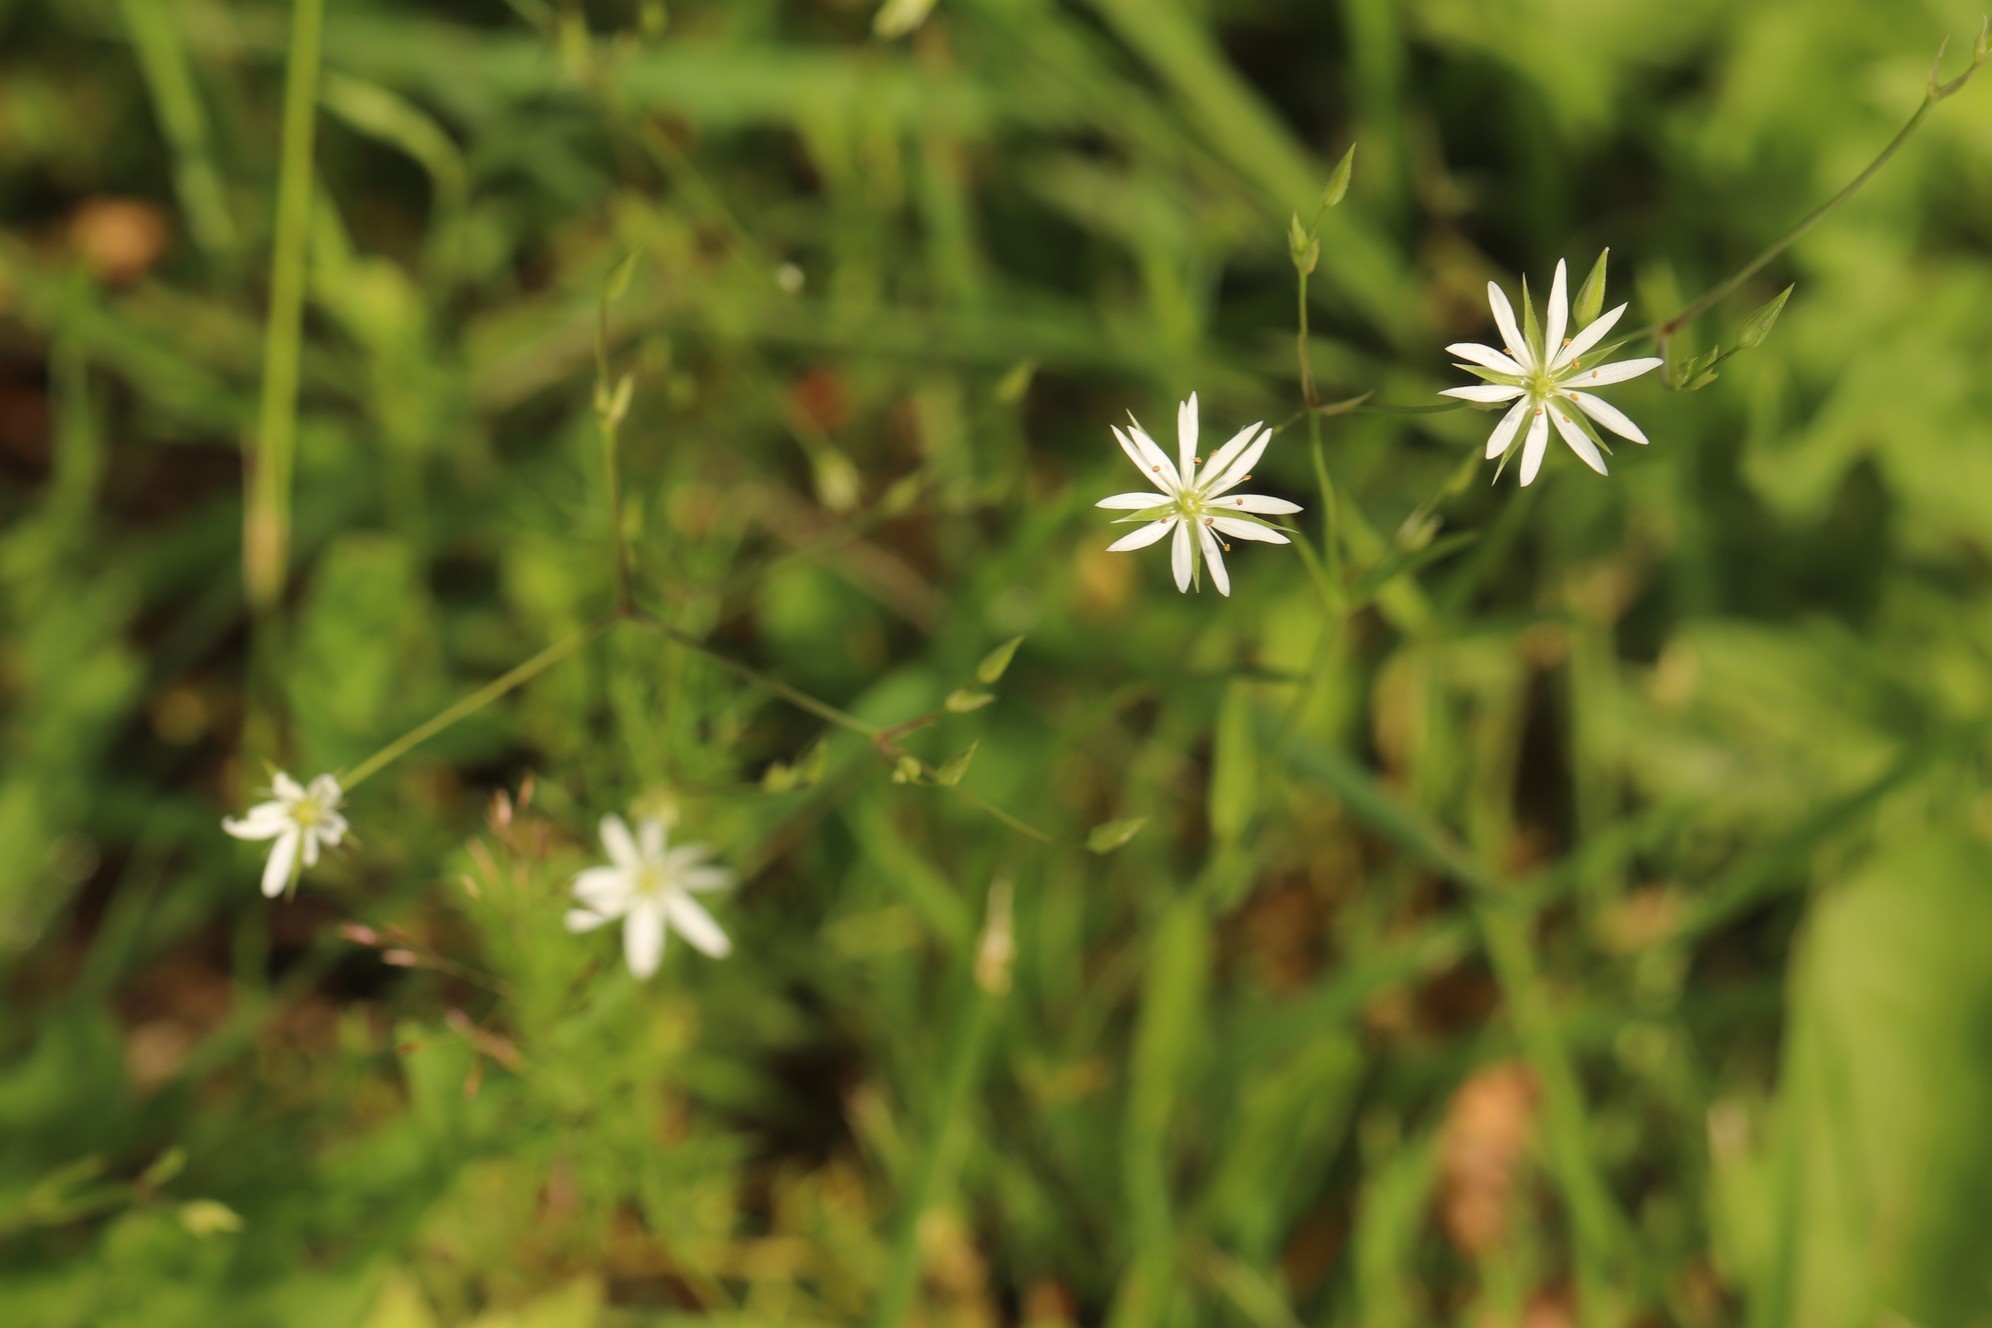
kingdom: Plantae
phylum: Tracheophyta
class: Magnoliopsida
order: Caryophyllales
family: Caryophyllaceae
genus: Stellaria
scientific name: Stellaria graminea
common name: Grass-like starwort
